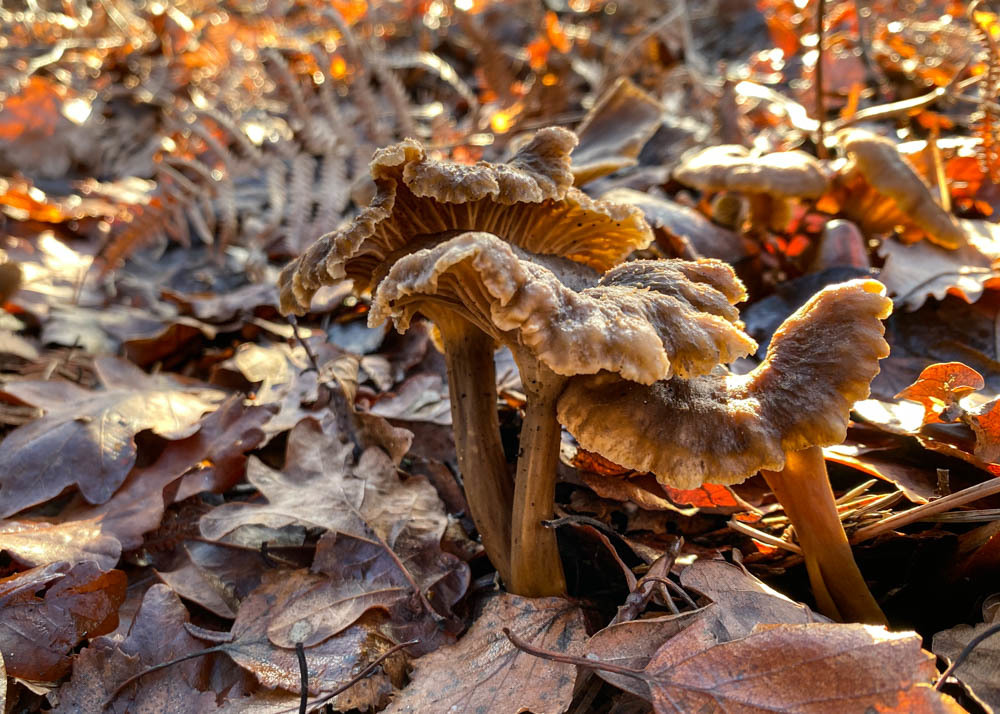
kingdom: Fungi
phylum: Basidiomycota
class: Agaricomycetes
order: Cantharellales
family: Hydnaceae
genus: Craterellus
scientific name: Craterellus tubaeformis
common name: Yellowfoot
